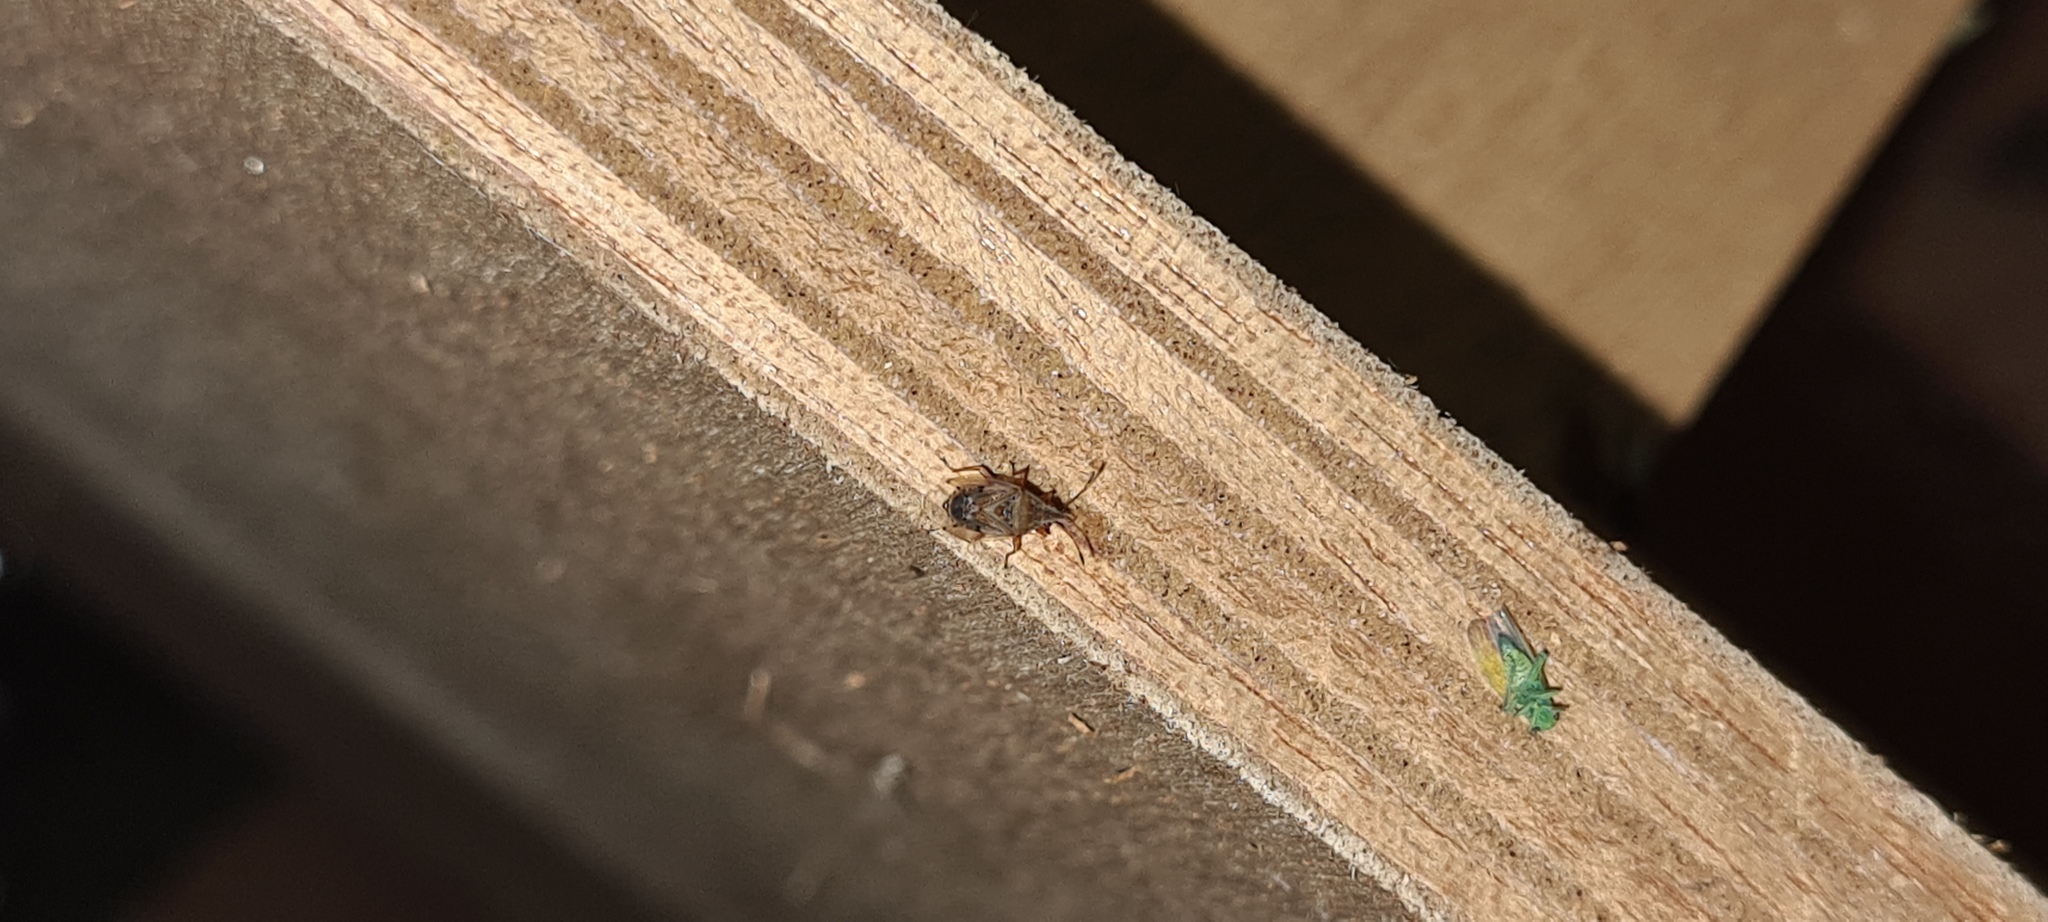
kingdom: Animalia
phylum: Arthropoda
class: Insecta
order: Hemiptera
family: Lygaeidae
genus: Kleidocerys
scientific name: Kleidocerys resedae
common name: Birch catkin bug
